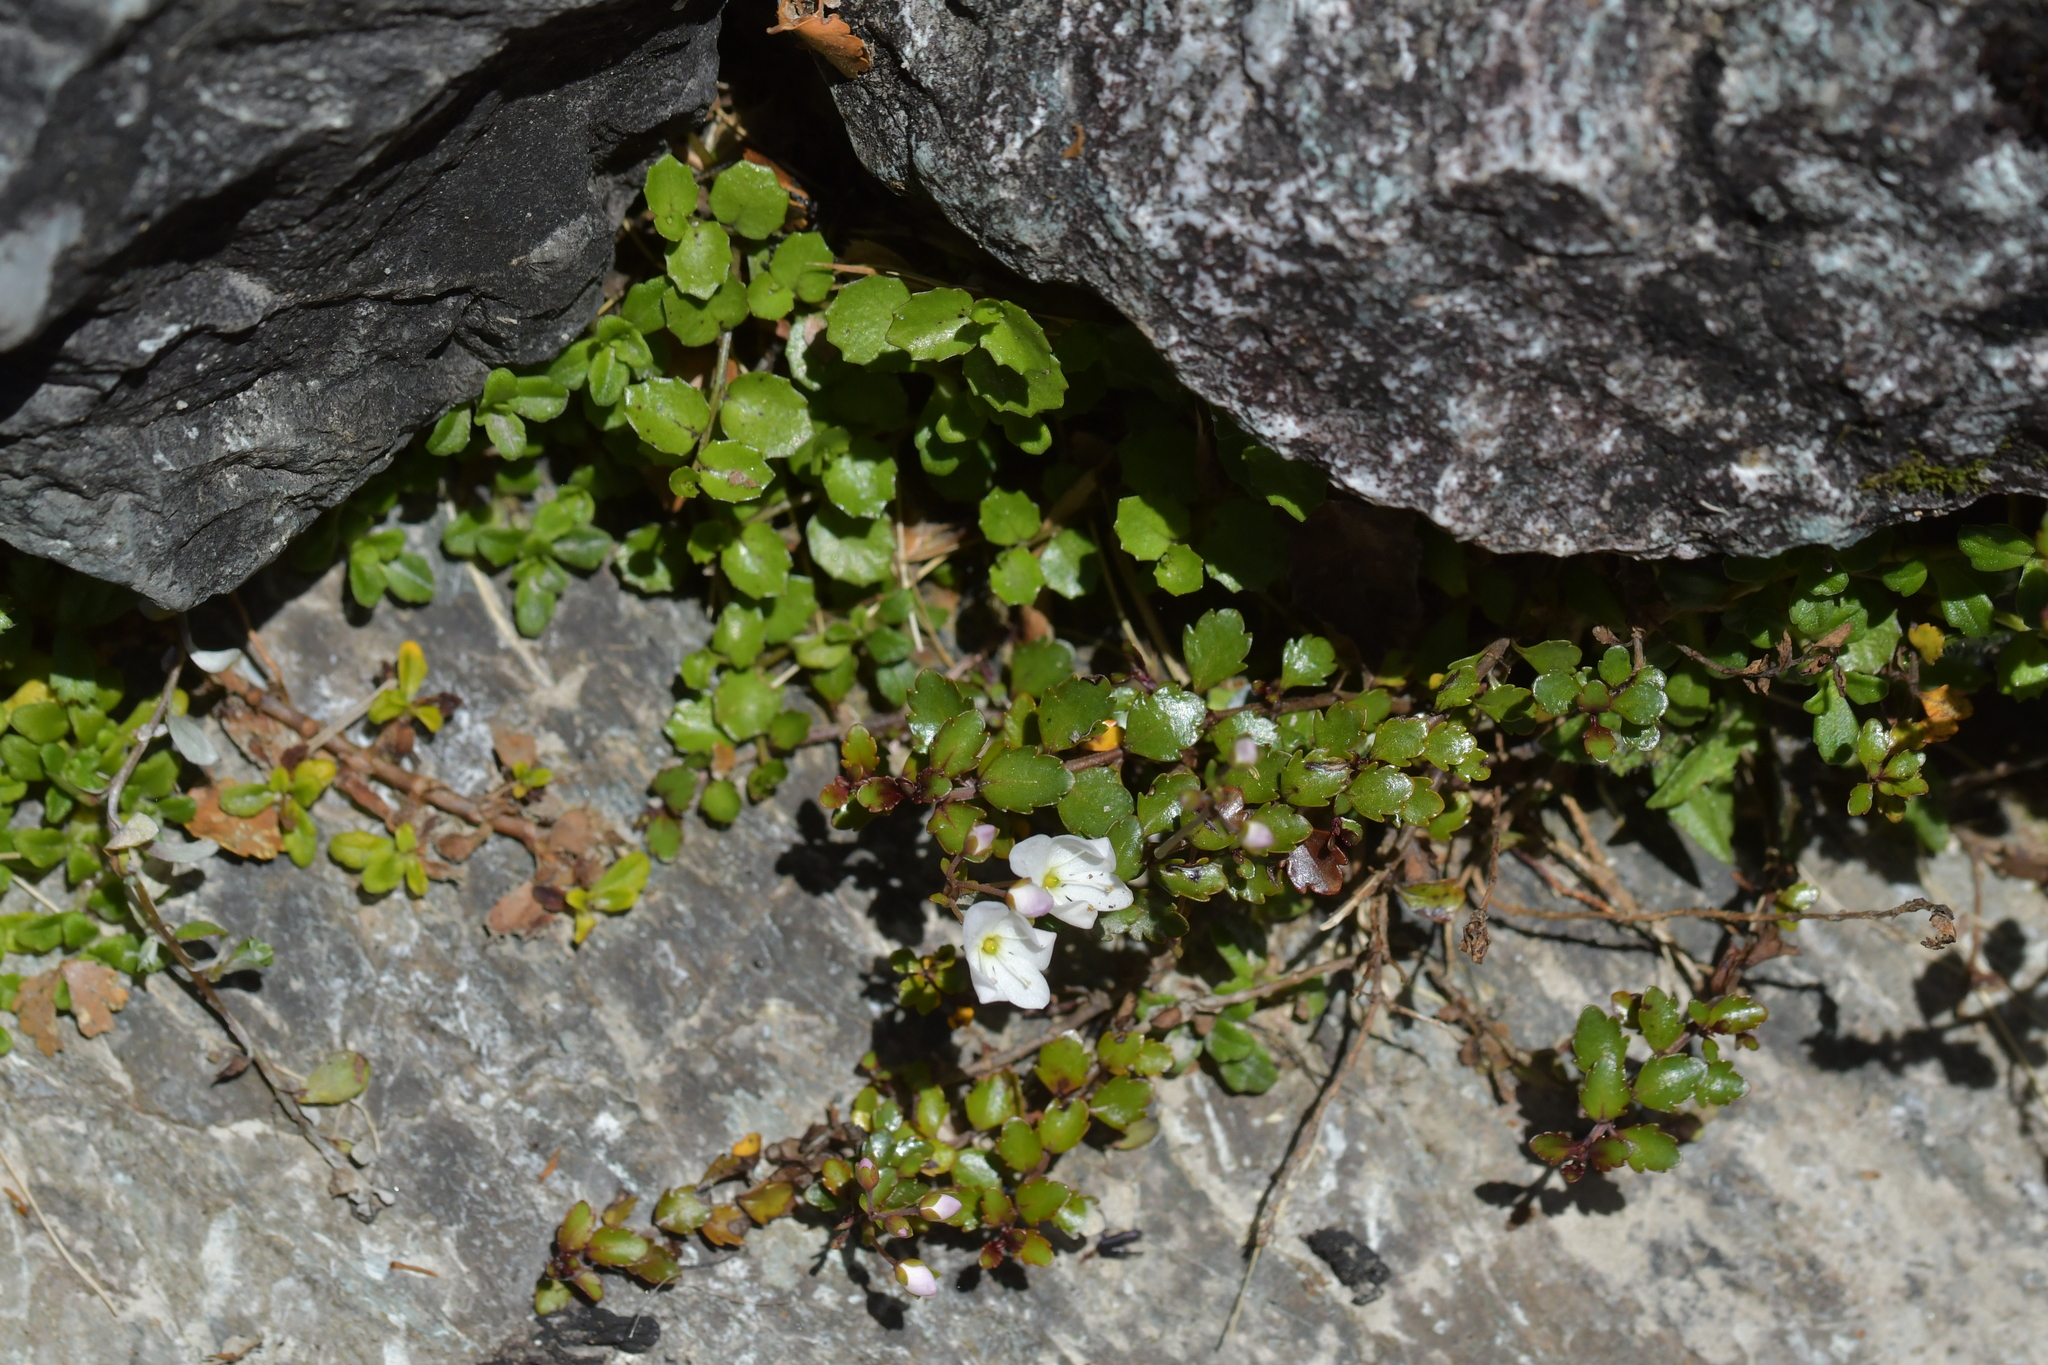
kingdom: Plantae
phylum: Tracheophyta
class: Magnoliopsida
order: Lamiales
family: Plantaginaceae
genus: Veronica
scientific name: Veronica lyallii
